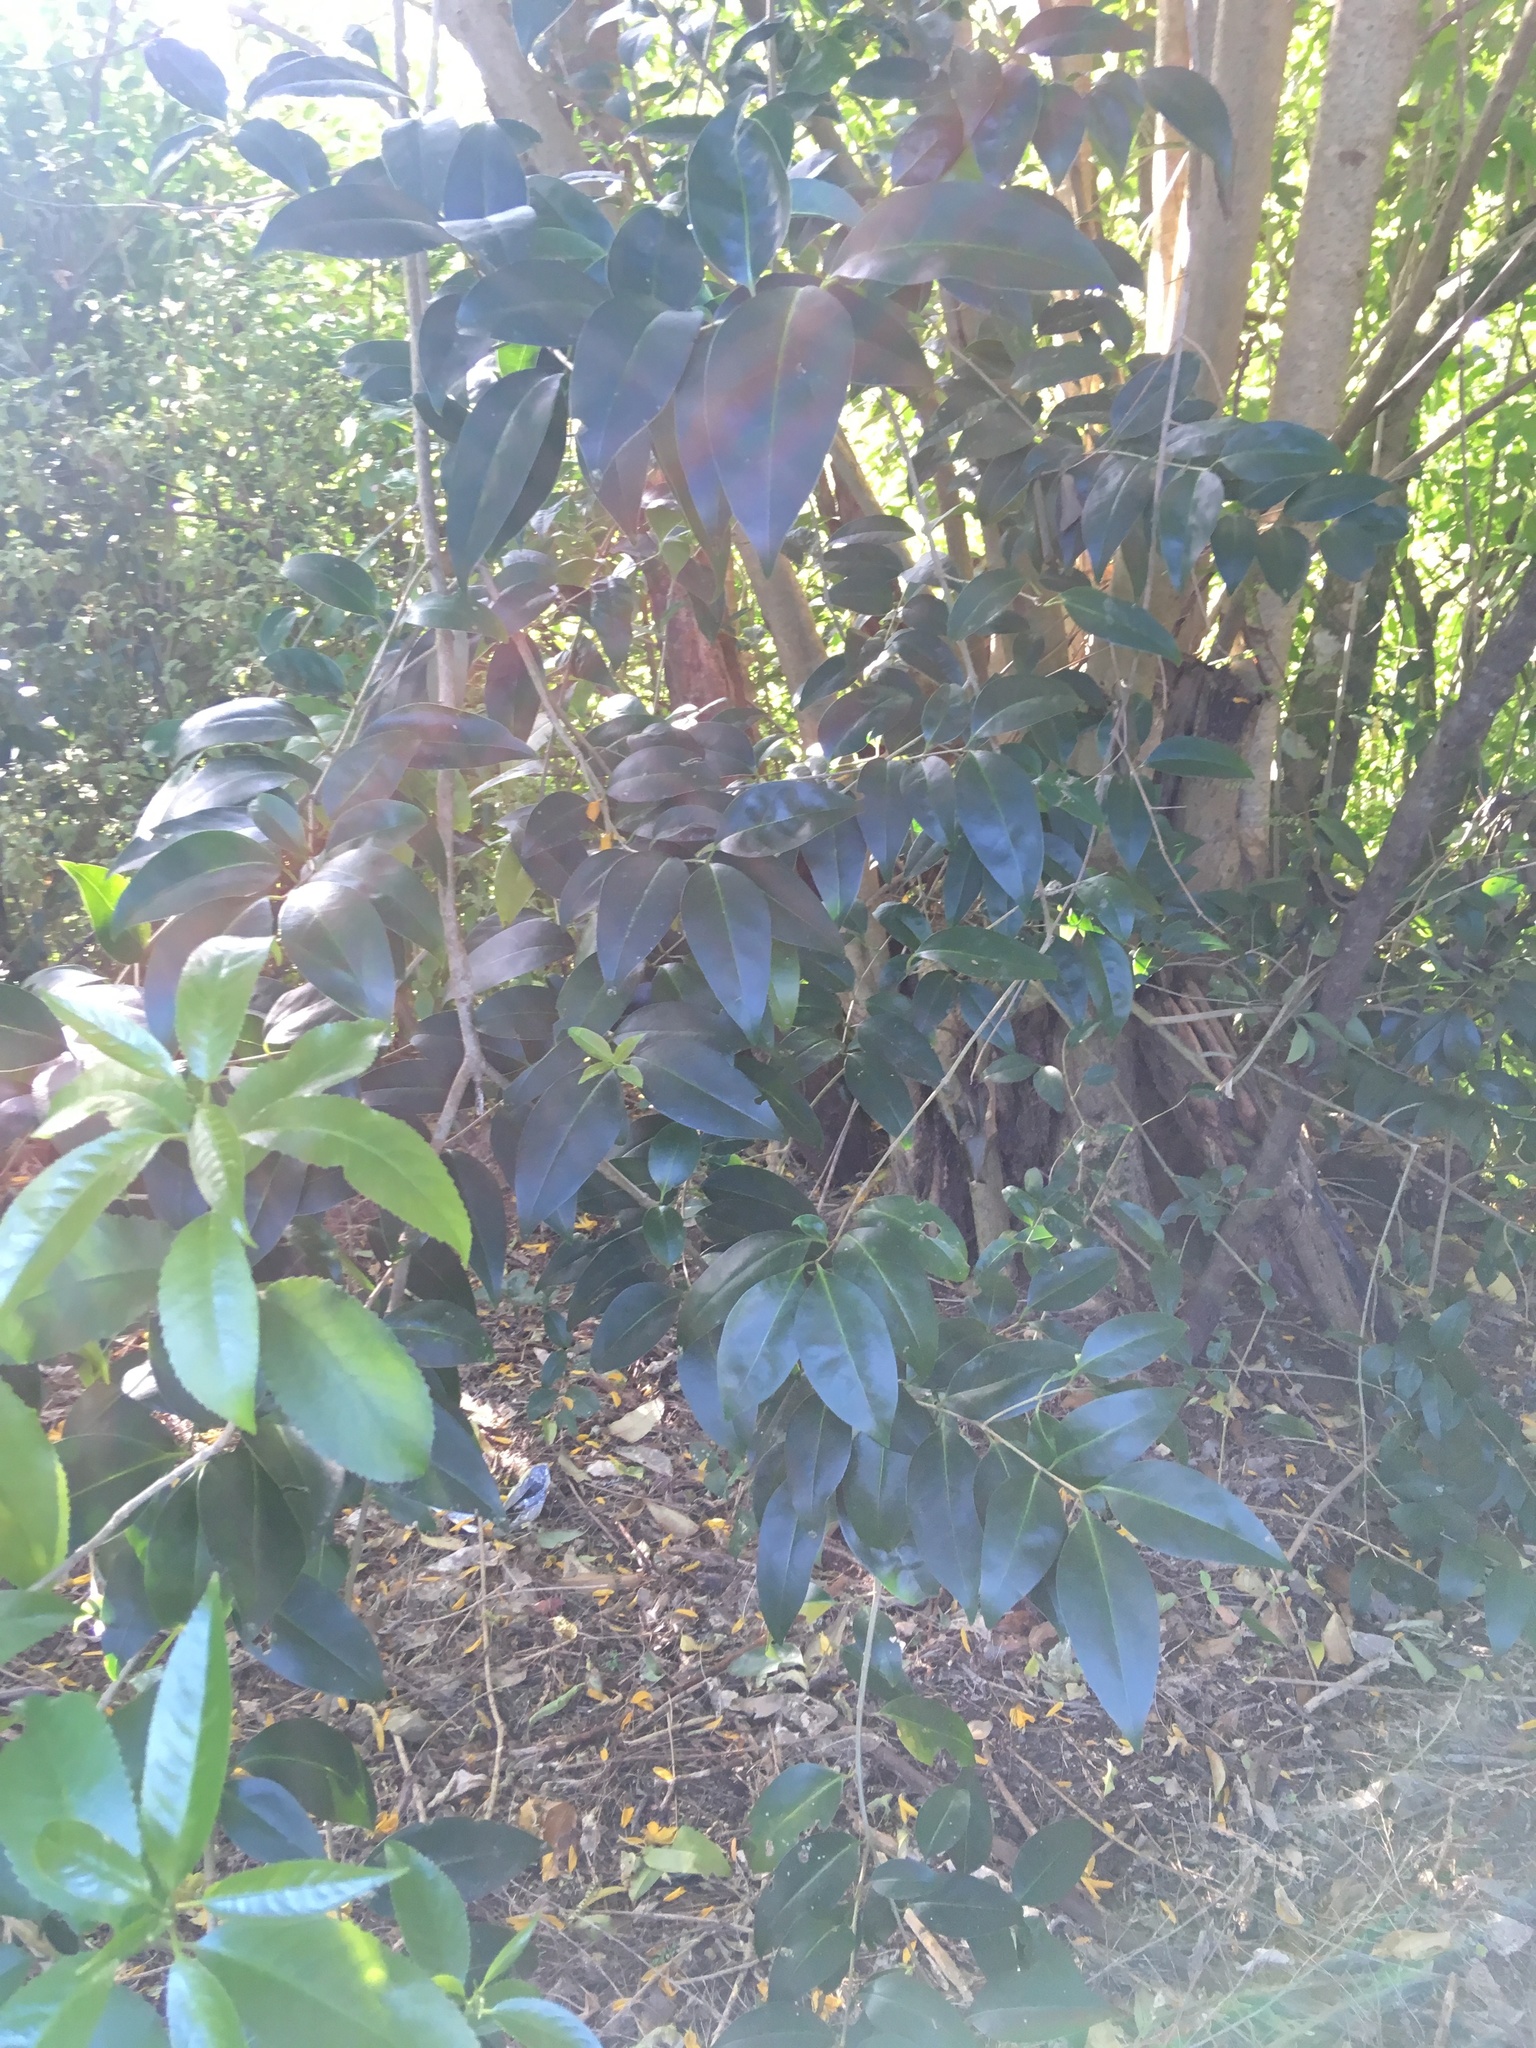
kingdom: Plantae
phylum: Tracheophyta
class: Magnoliopsida
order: Malpighiales
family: Violaceae
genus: Melicytus
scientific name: Melicytus ramiflorus
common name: Mahoe
